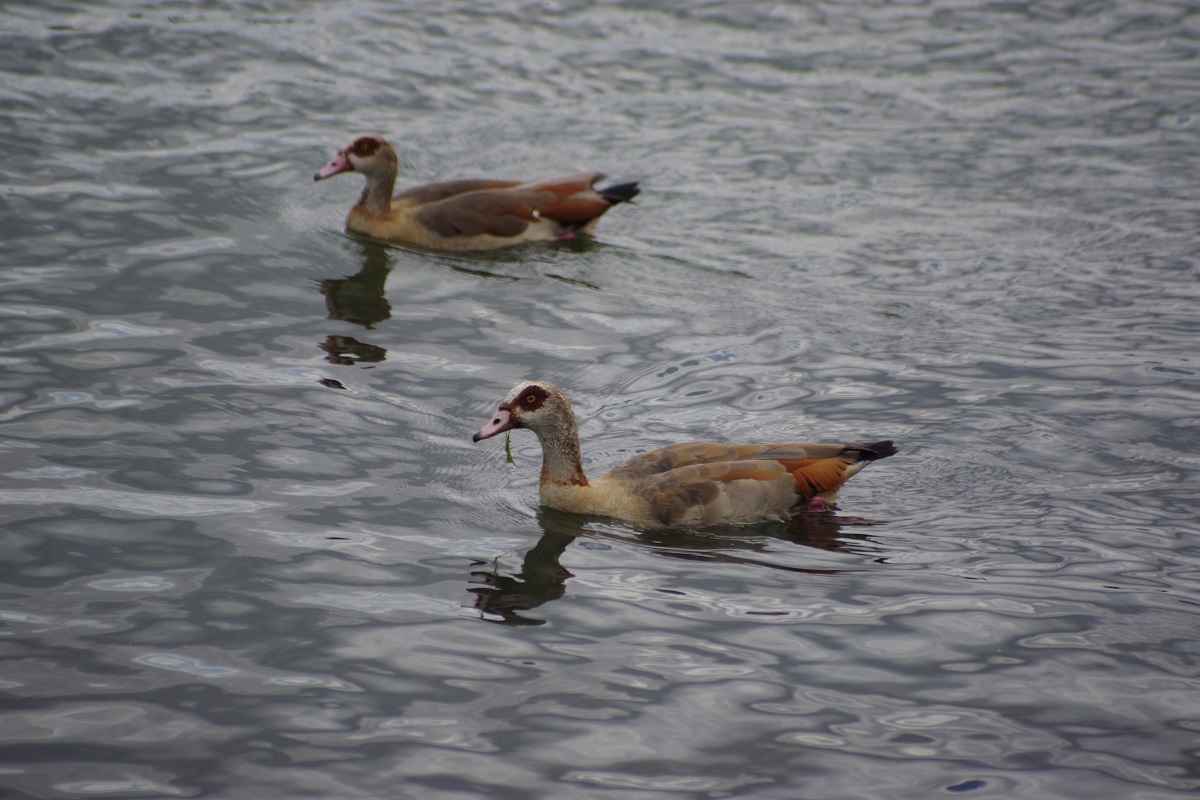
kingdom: Animalia
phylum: Chordata
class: Aves
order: Anseriformes
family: Anatidae
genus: Alopochen
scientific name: Alopochen aegyptiaca
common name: Egyptian goose
